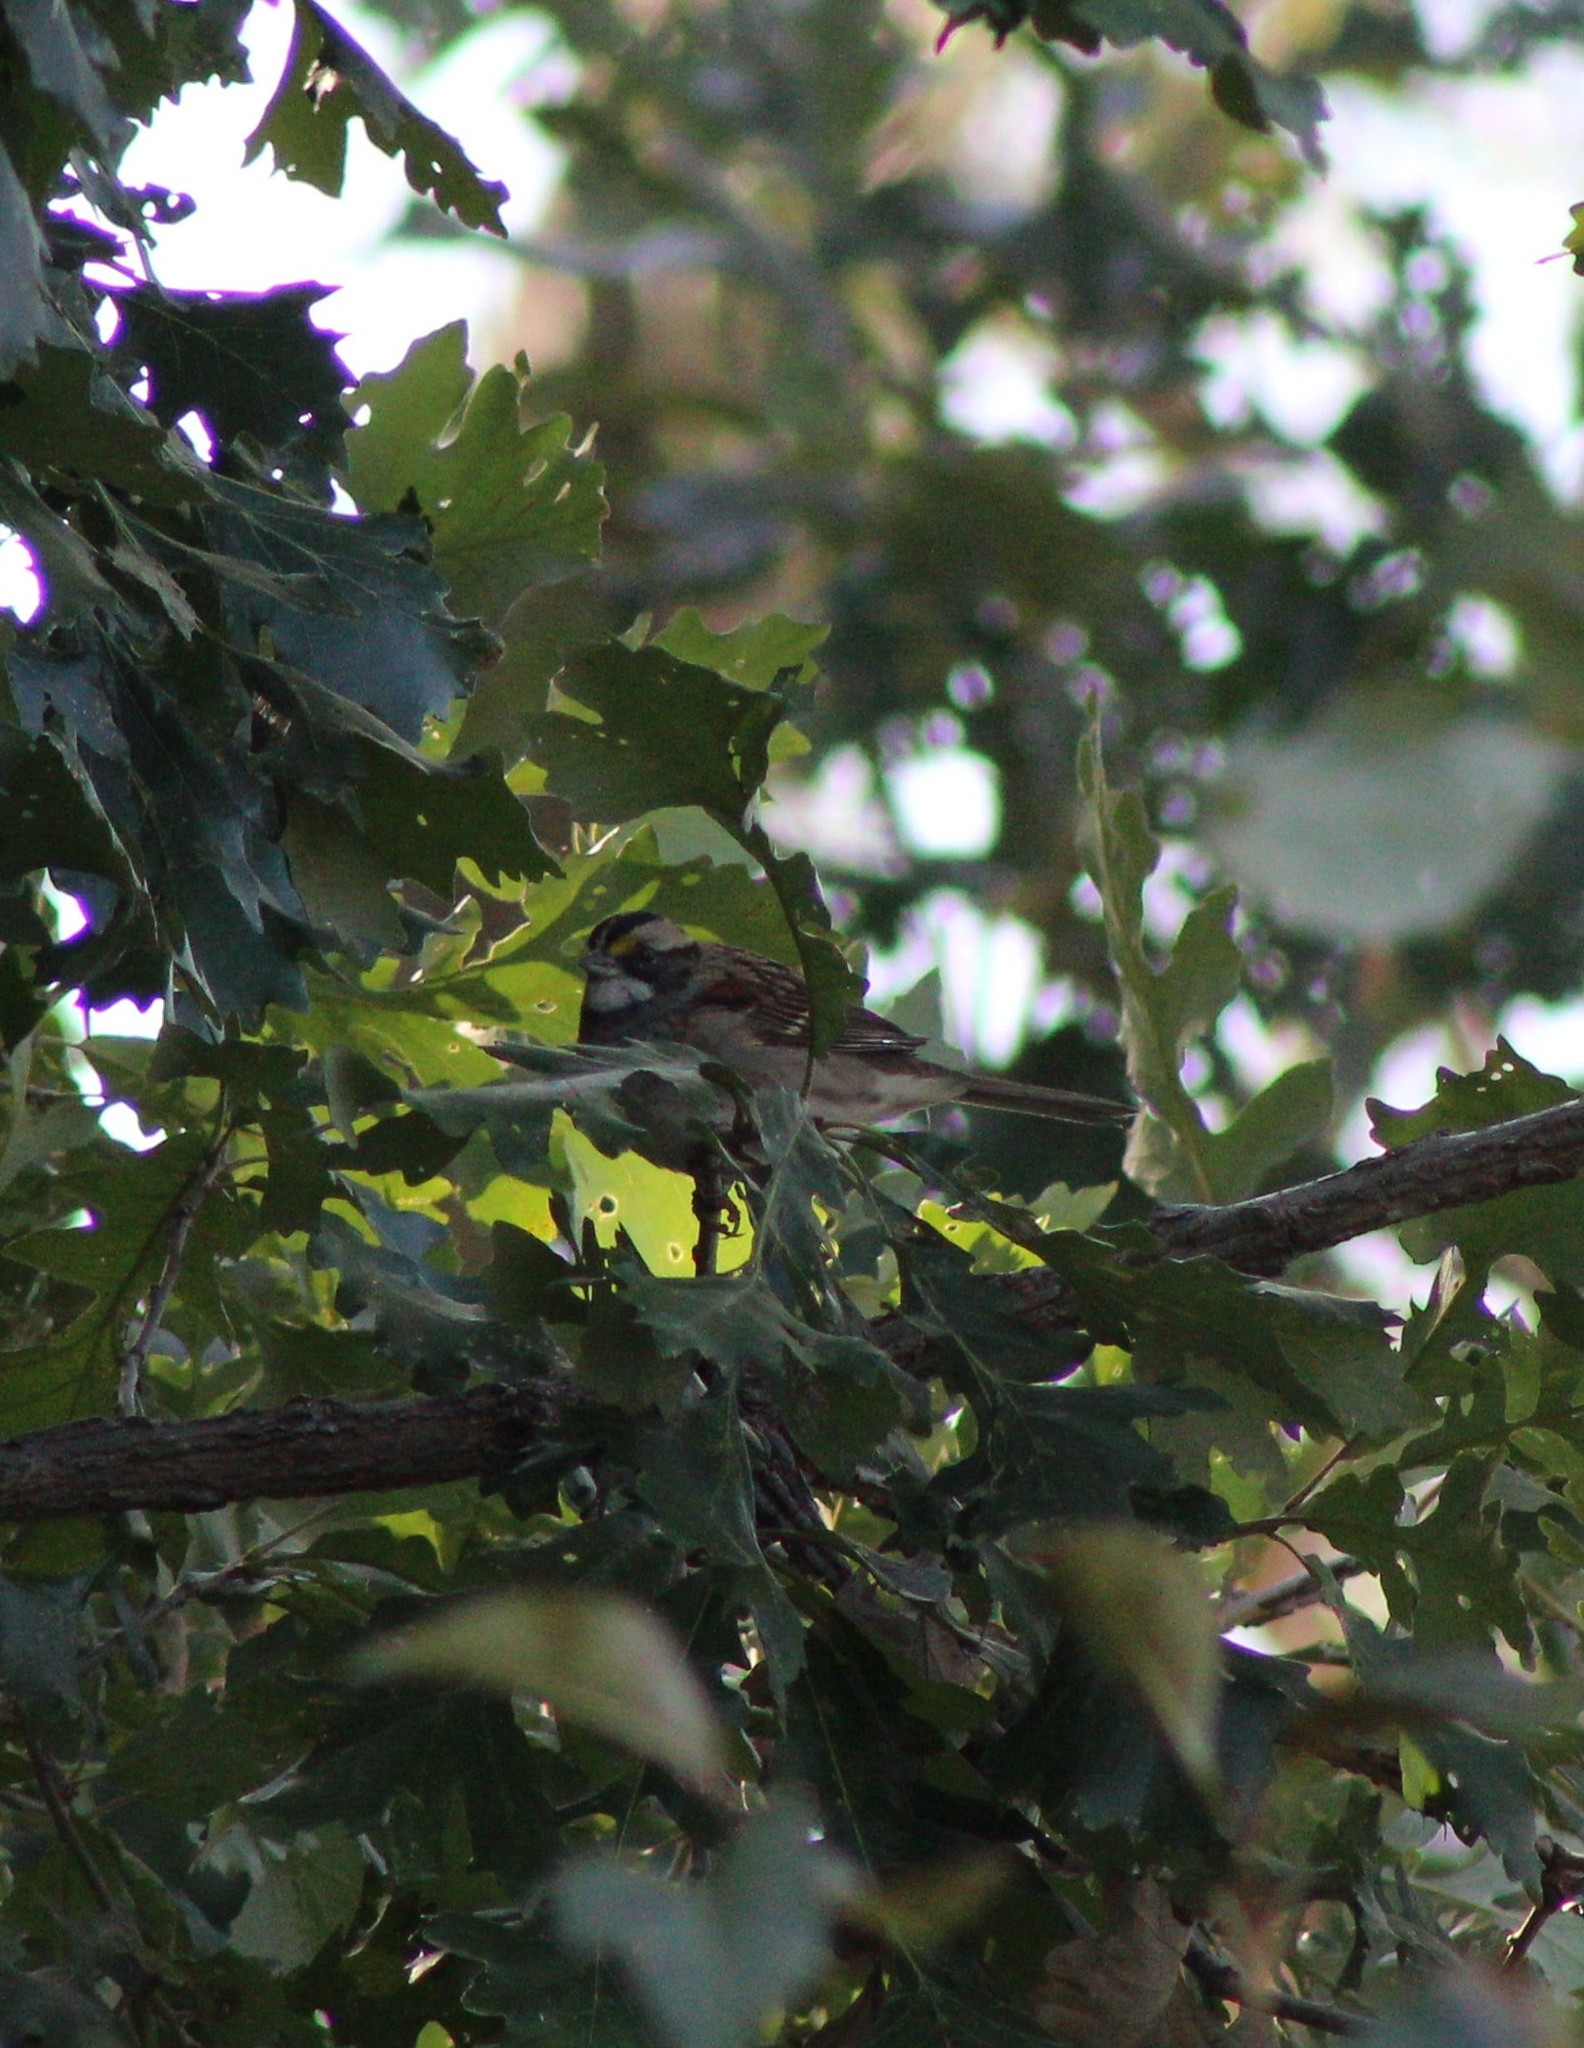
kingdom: Animalia
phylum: Chordata
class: Aves
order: Passeriformes
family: Passerellidae
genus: Zonotrichia
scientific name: Zonotrichia albicollis
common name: White-throated sparrow
